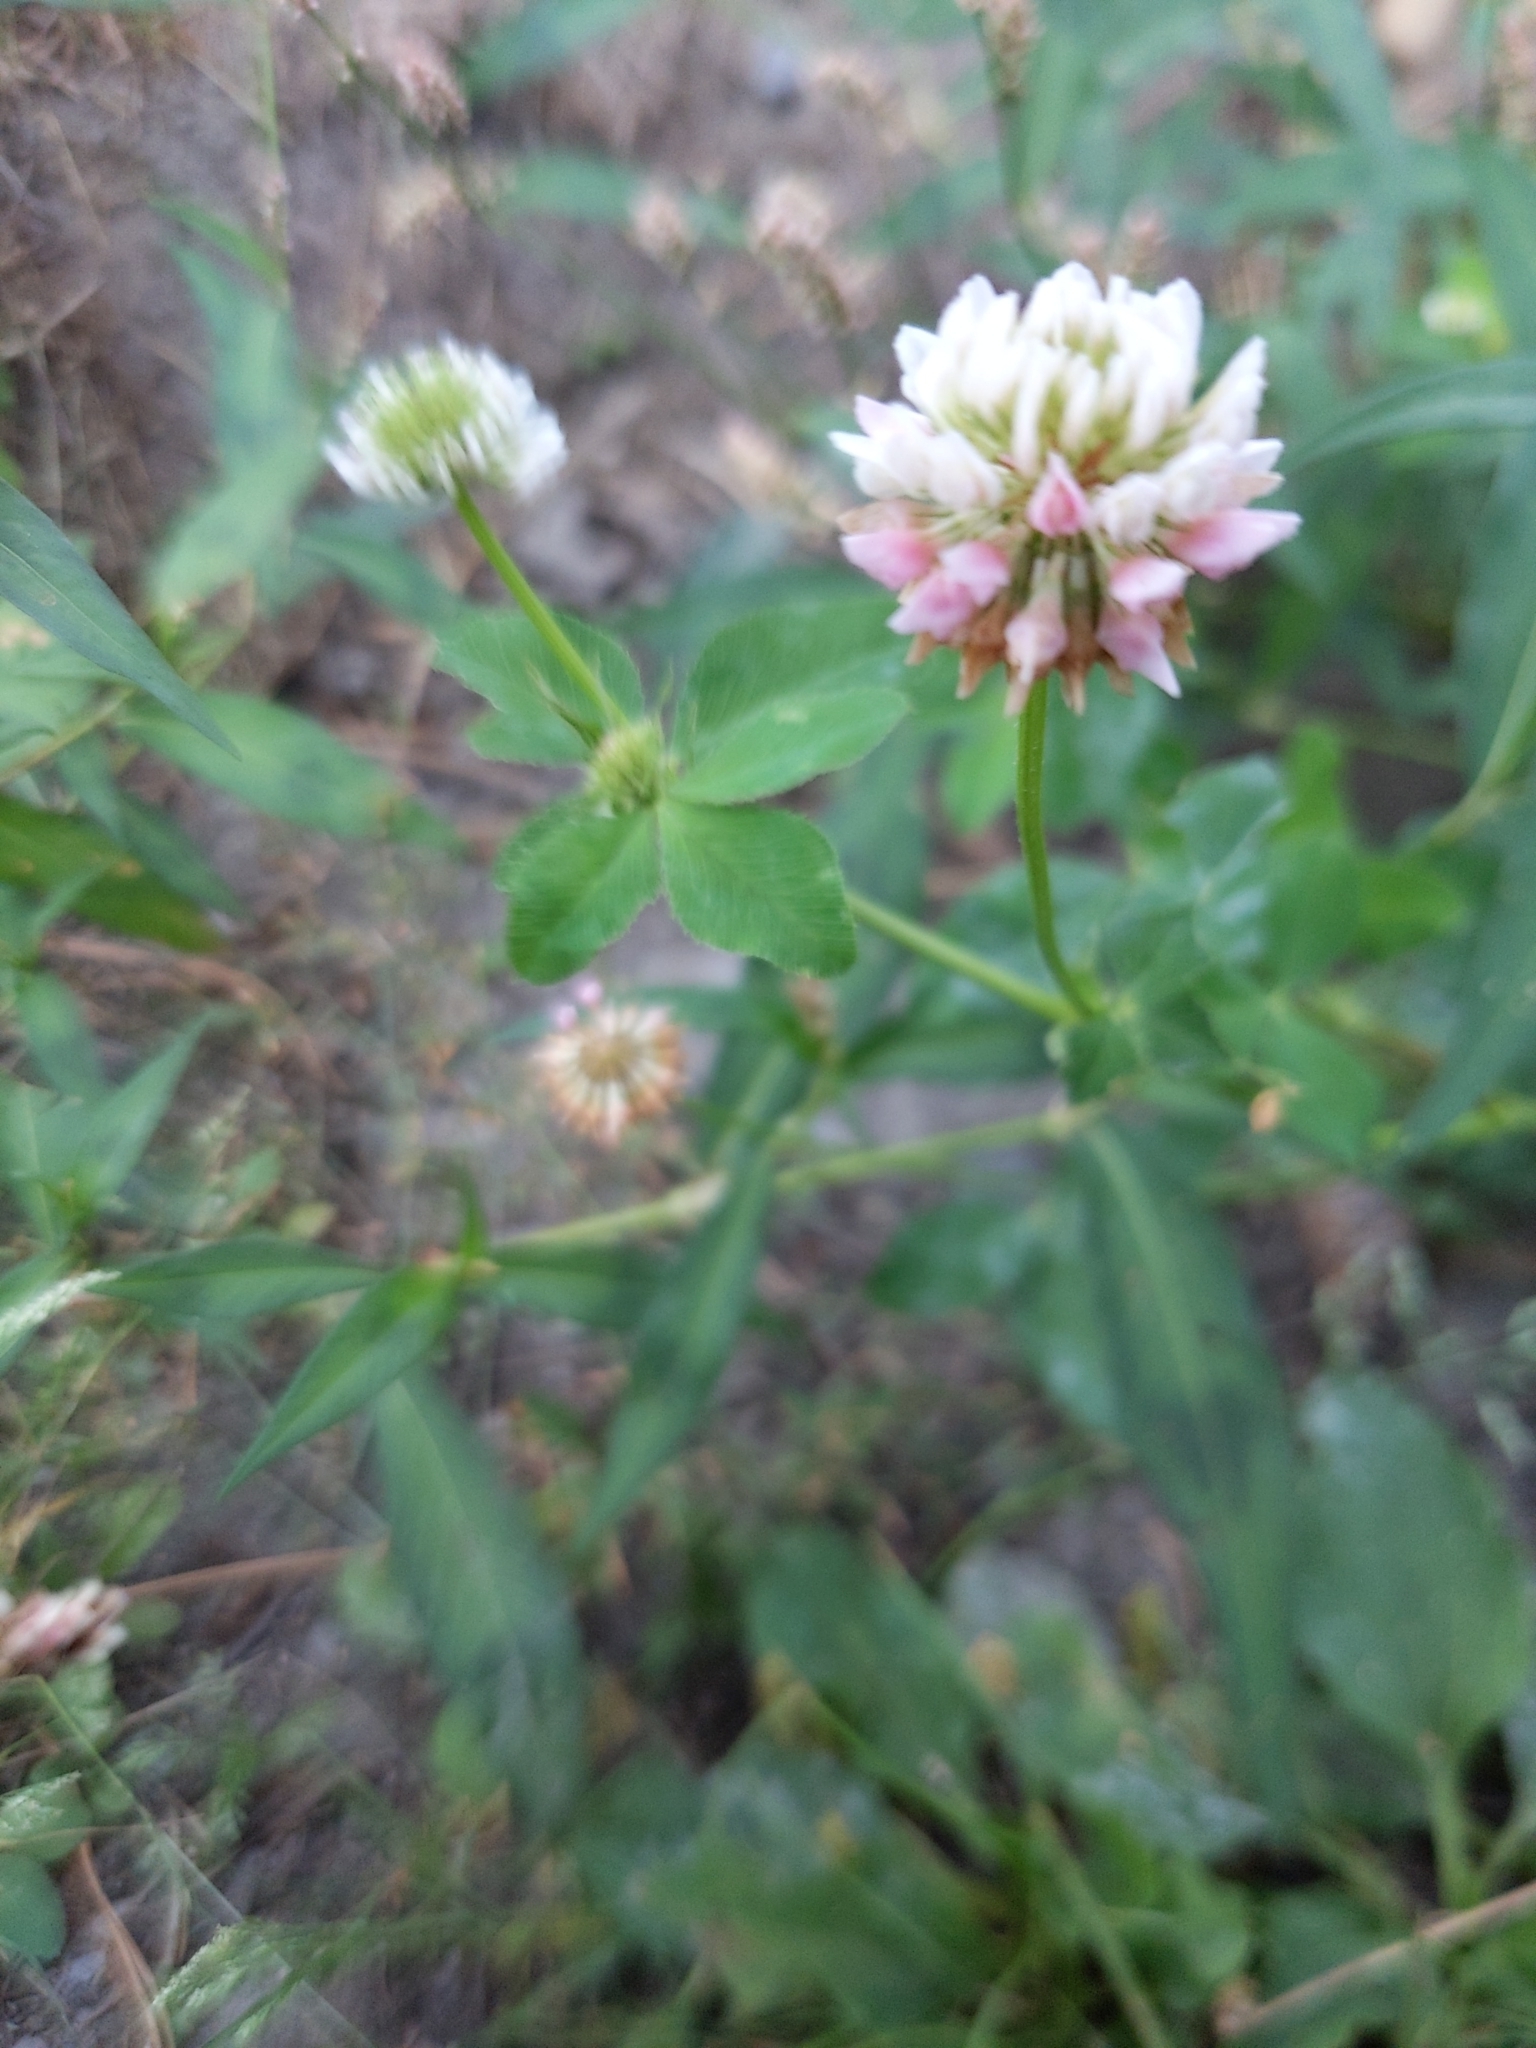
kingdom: Plantae
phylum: Tracheophyta
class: Magnoliopsida
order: Fabales
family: Fabaceae
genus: Trifolium
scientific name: Trifolium hybridum
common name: Alsike clover
